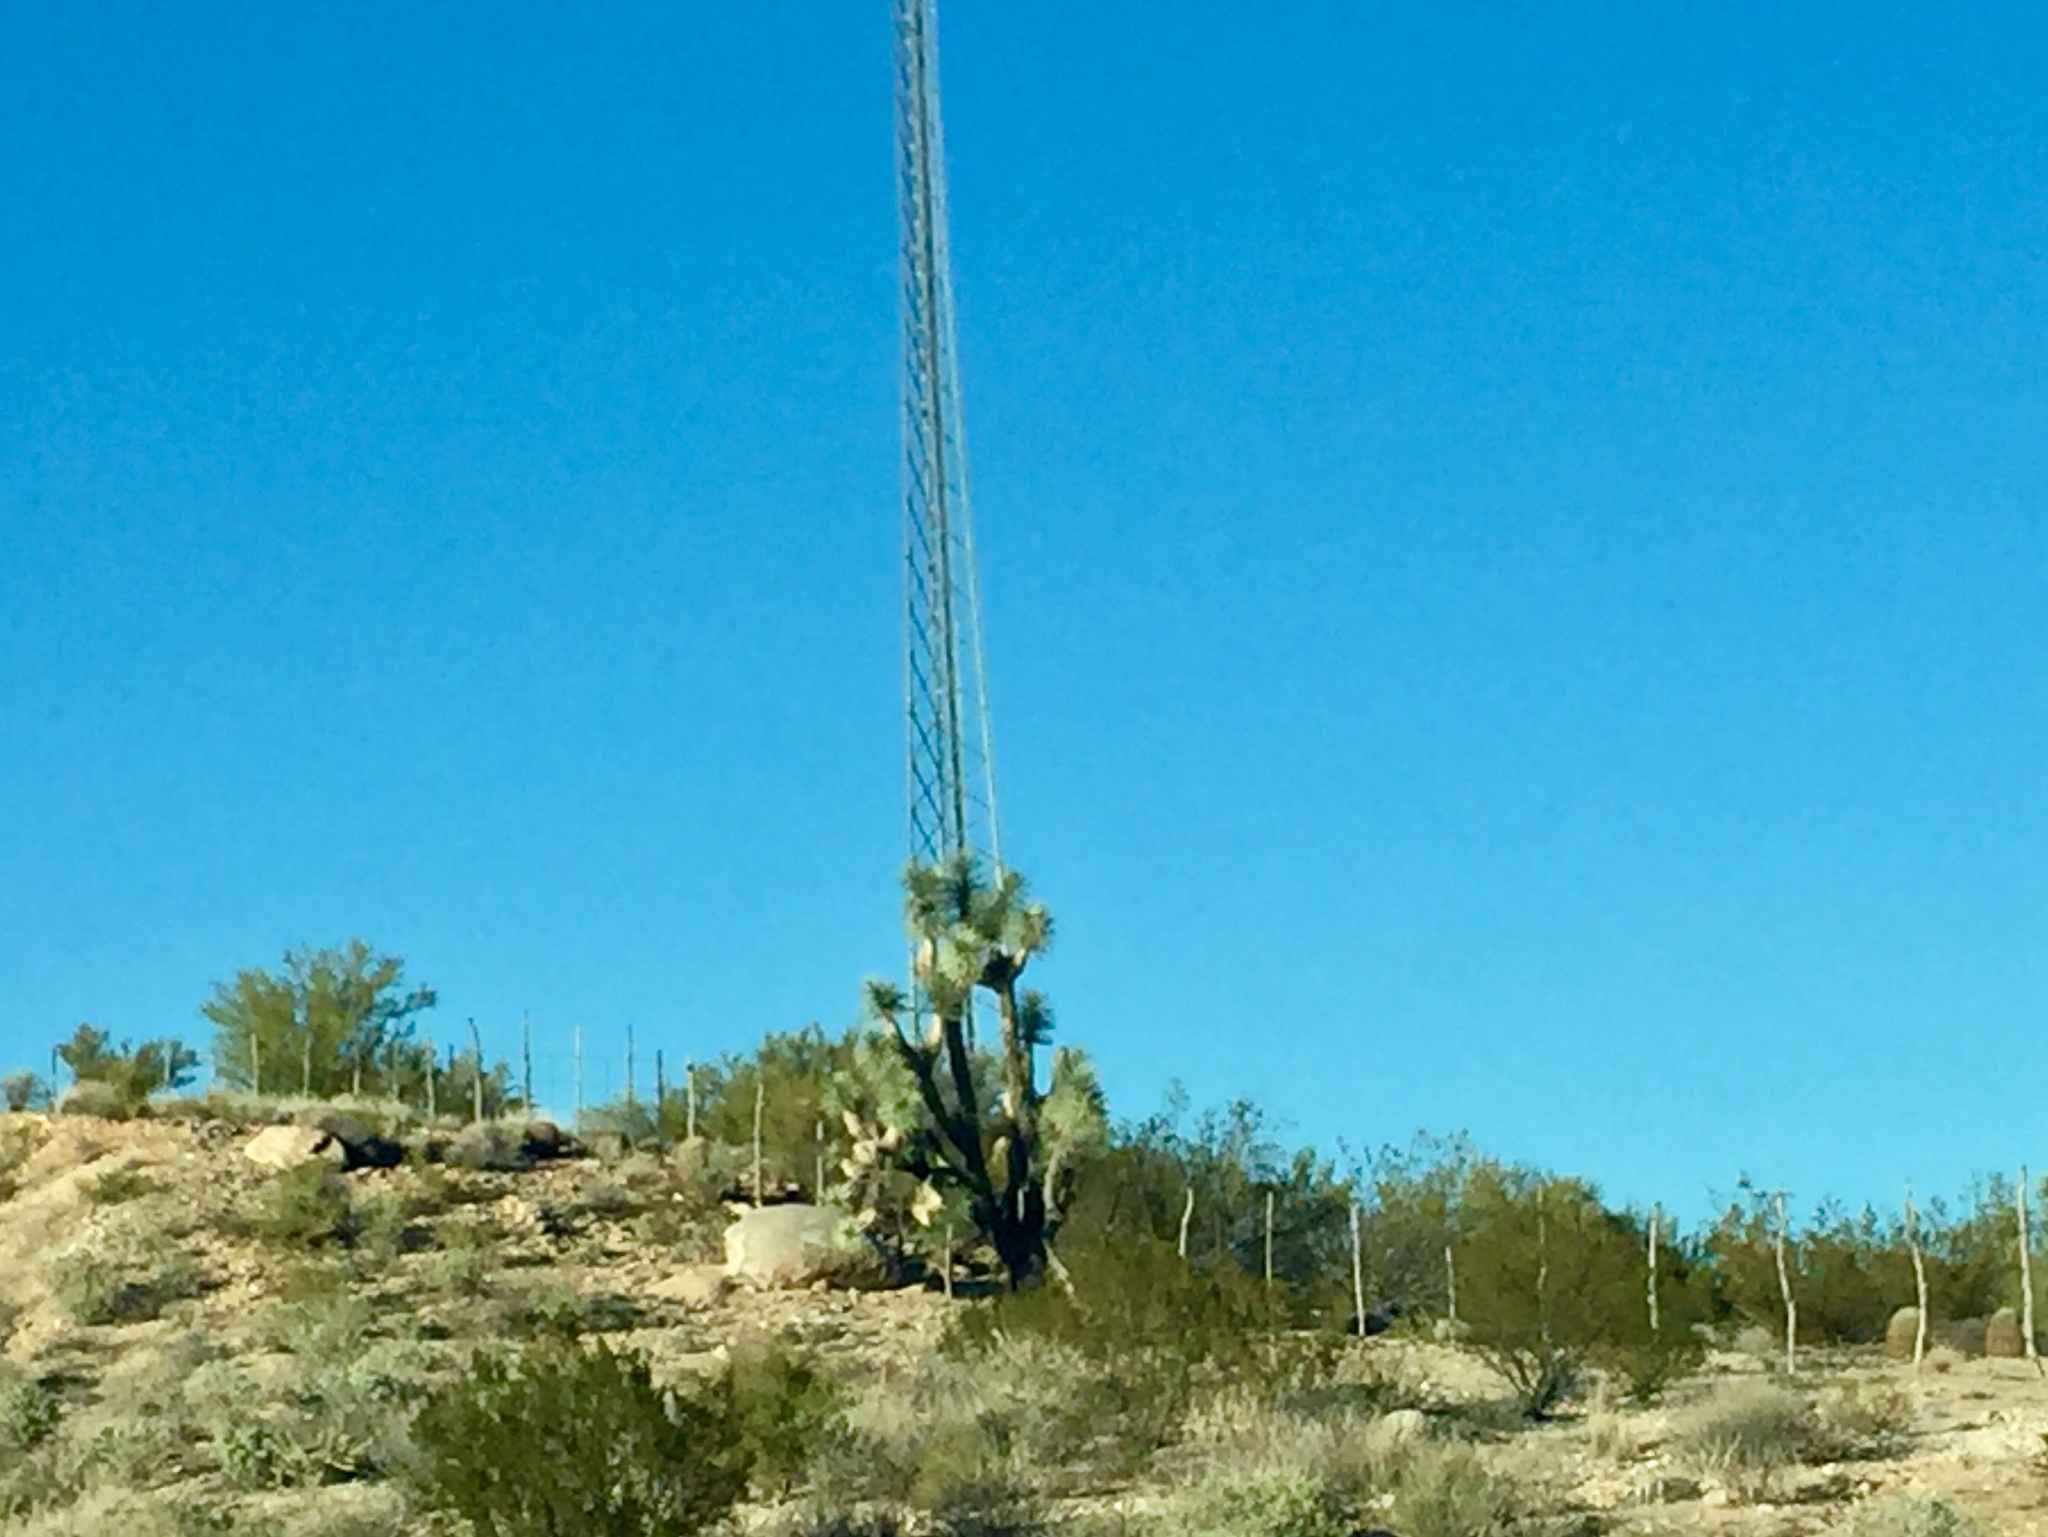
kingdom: Plantae
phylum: Tracheophyta
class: Liliopsida
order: Asparagales
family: Asparagaceae
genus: Yucca
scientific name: Yucca brevifolia
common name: Joshua tree
